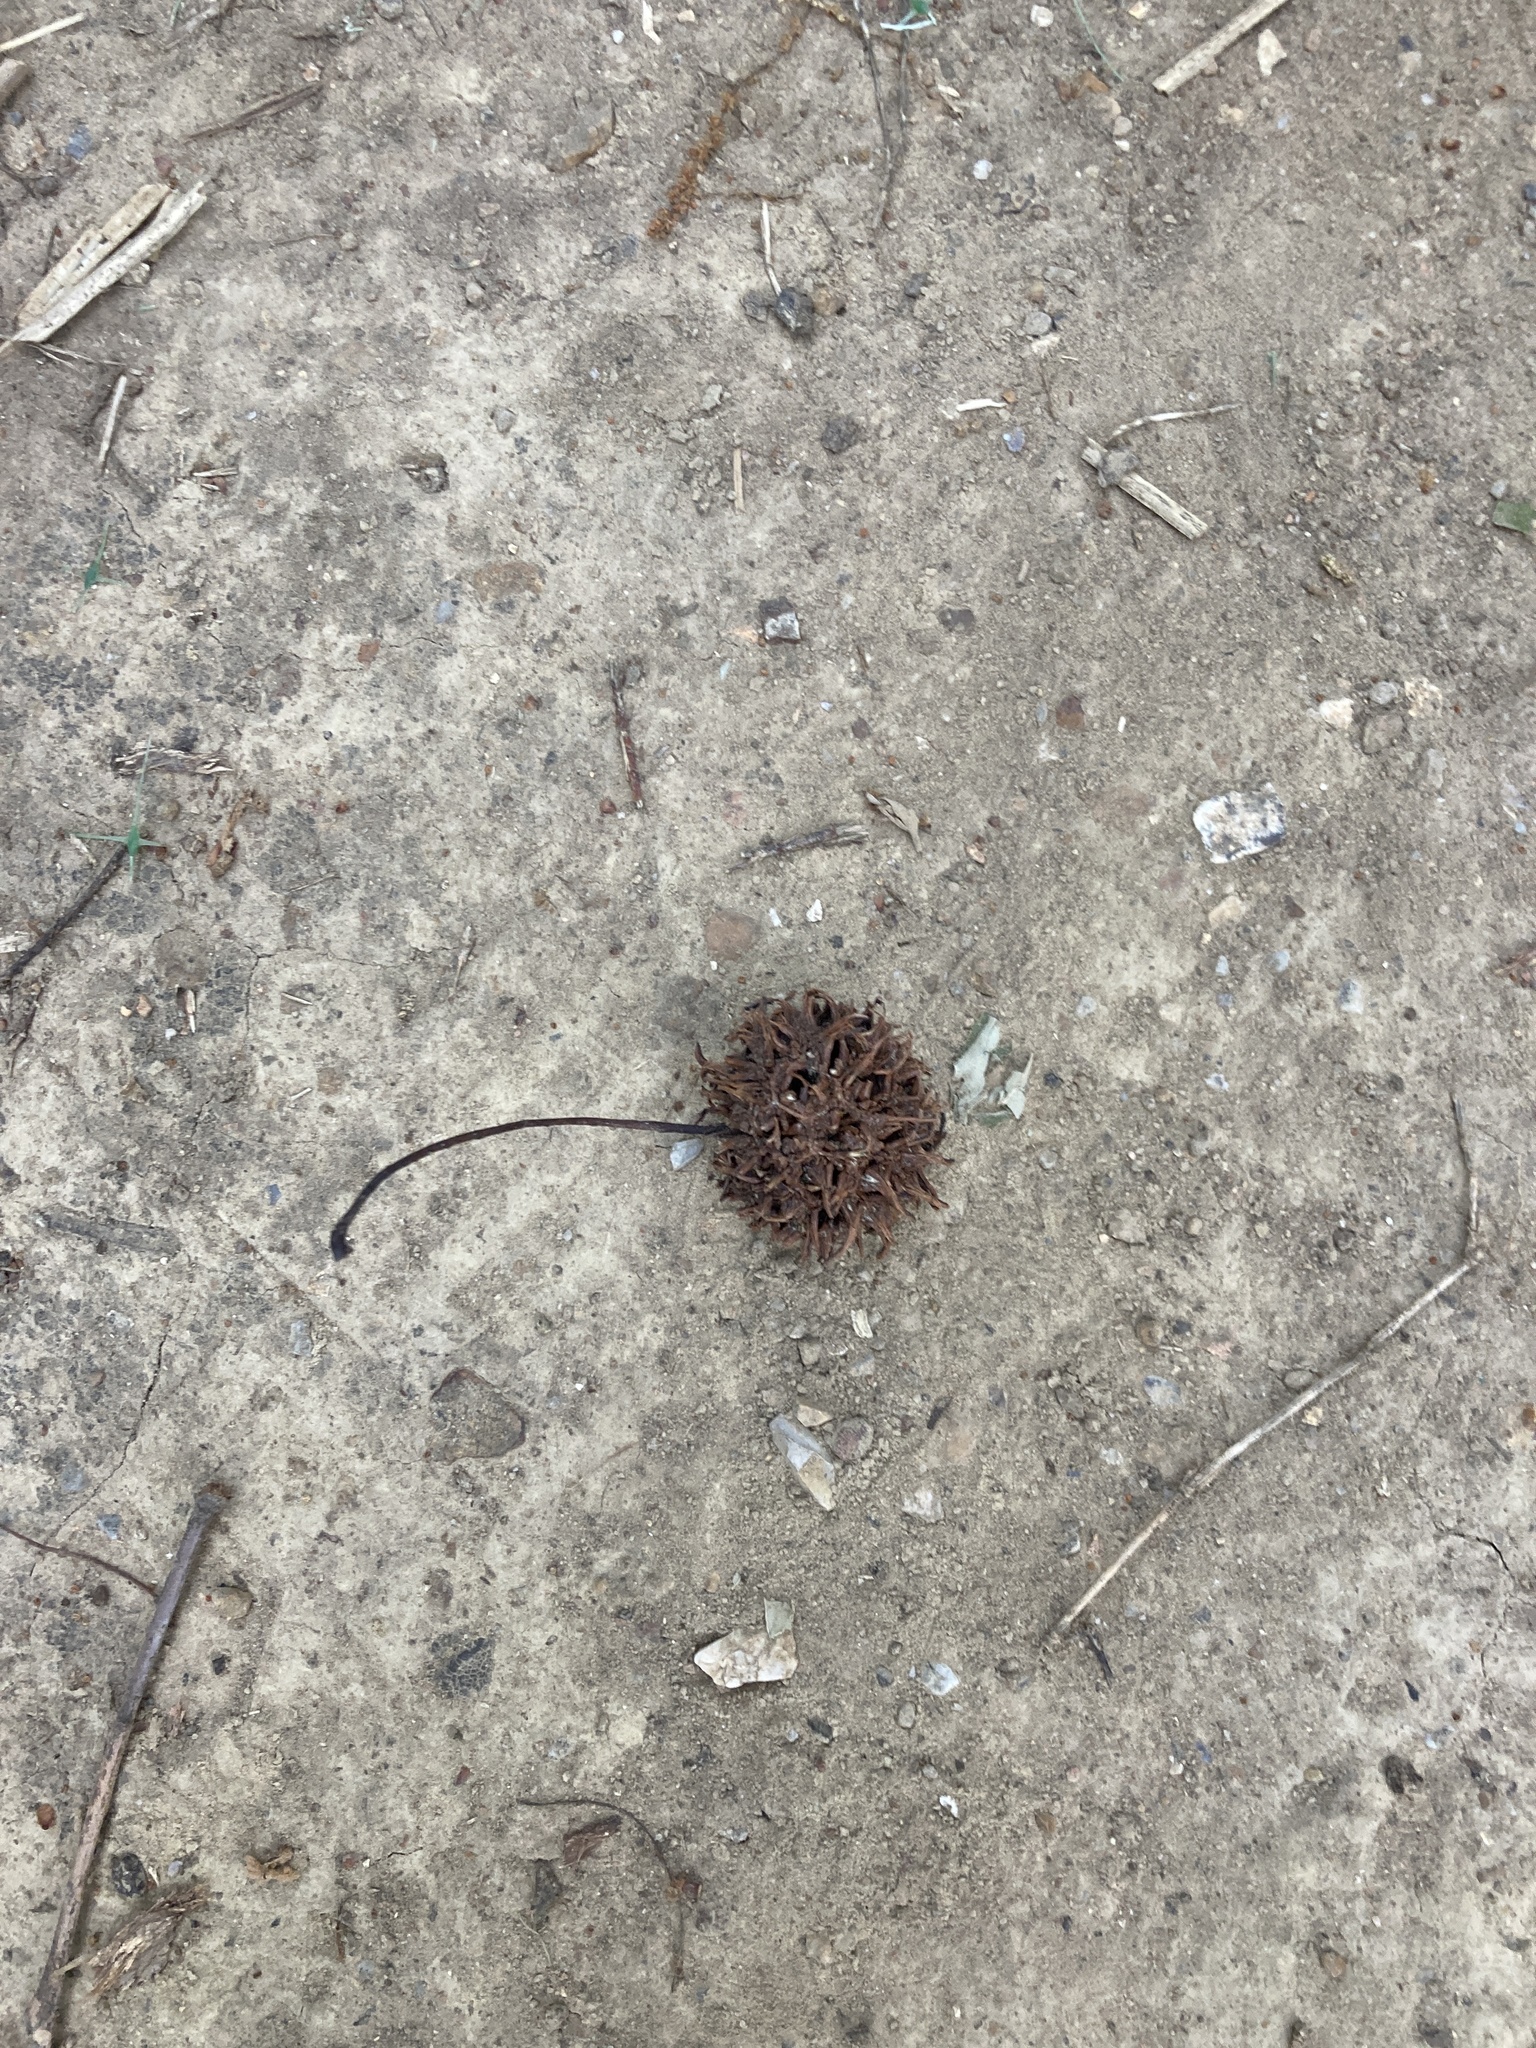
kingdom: Plantae
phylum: Tracheophyta
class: Magnoliopsida
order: Saxifragales
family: Altingiaceae
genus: Liquidambar
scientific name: Liquidambar styraciflua
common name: Sweet gum
